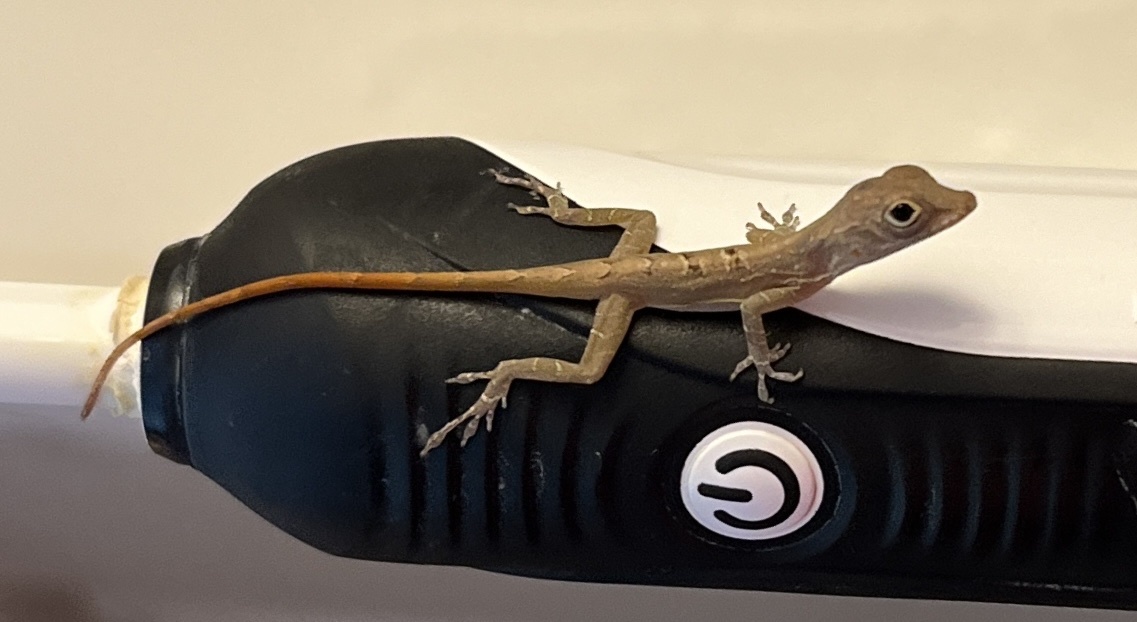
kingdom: Animalia
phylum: Chordata
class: Squamata
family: Dactyloidae
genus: Anolis
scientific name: Anolis grahami
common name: Graham's anole
